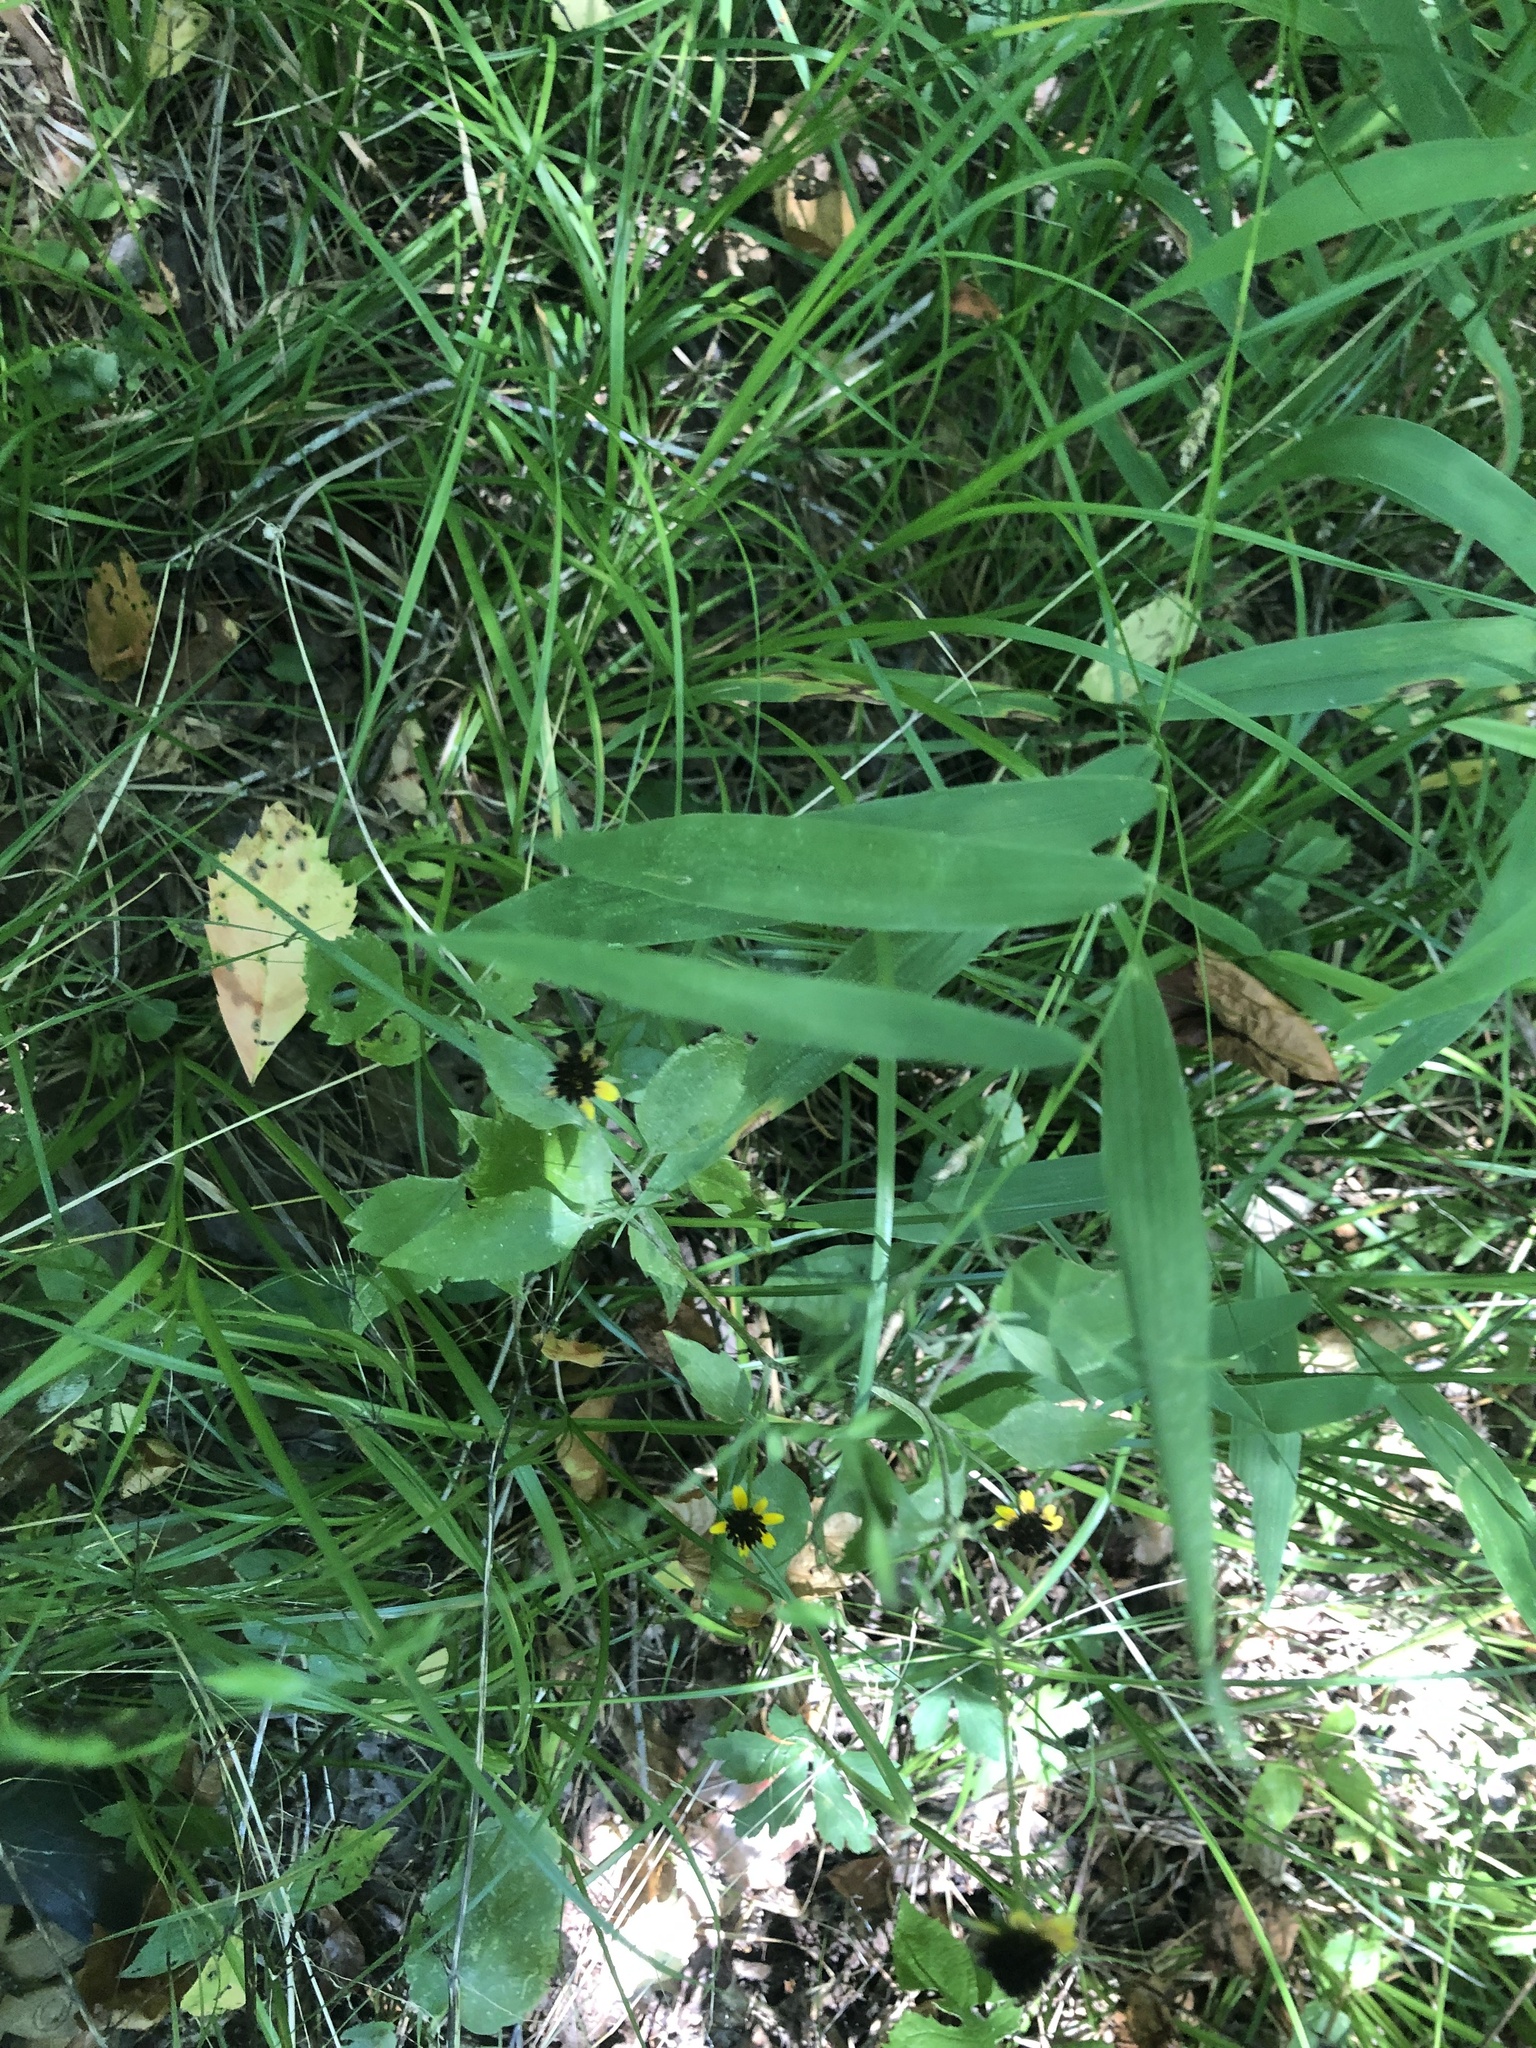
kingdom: Plantae
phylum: Tracheophyta
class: Magnoliopsida
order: Asterales
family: Asteraceae
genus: Rudbeckia
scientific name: Rudbeckia triloba
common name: Thin-leaved coneflower
